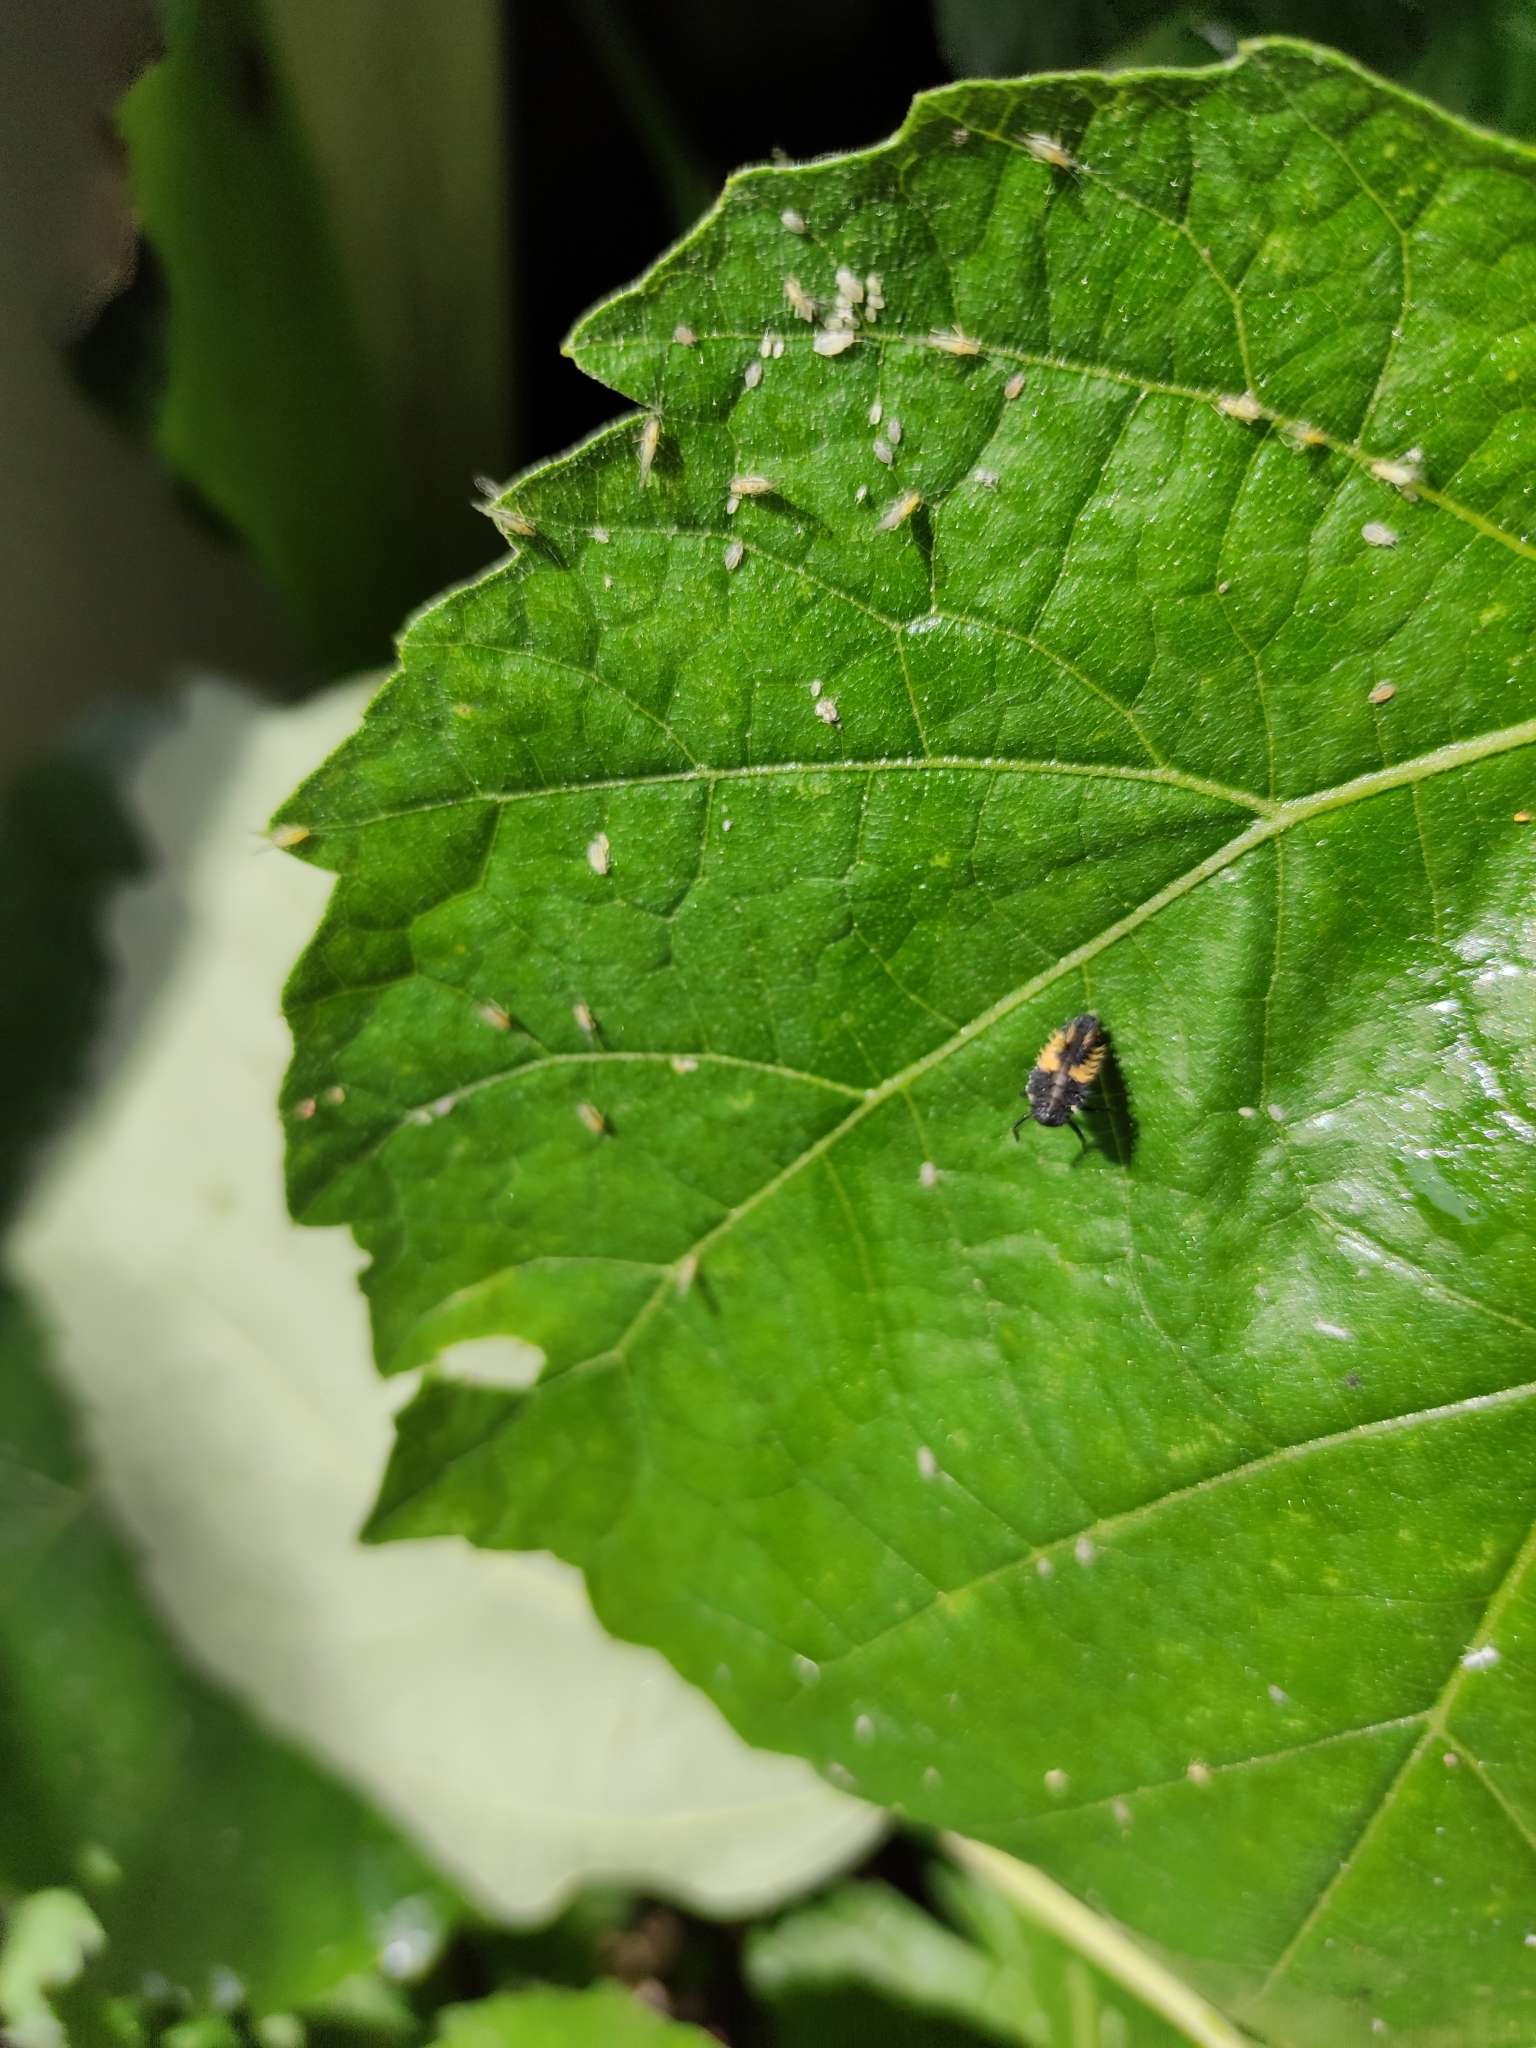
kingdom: Animalia
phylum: Arthropoda
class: Insecta
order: Coleoptera
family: Coccinellidae
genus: Harmonia
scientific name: Harmonia axyridis
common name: Harlequin ladybird
